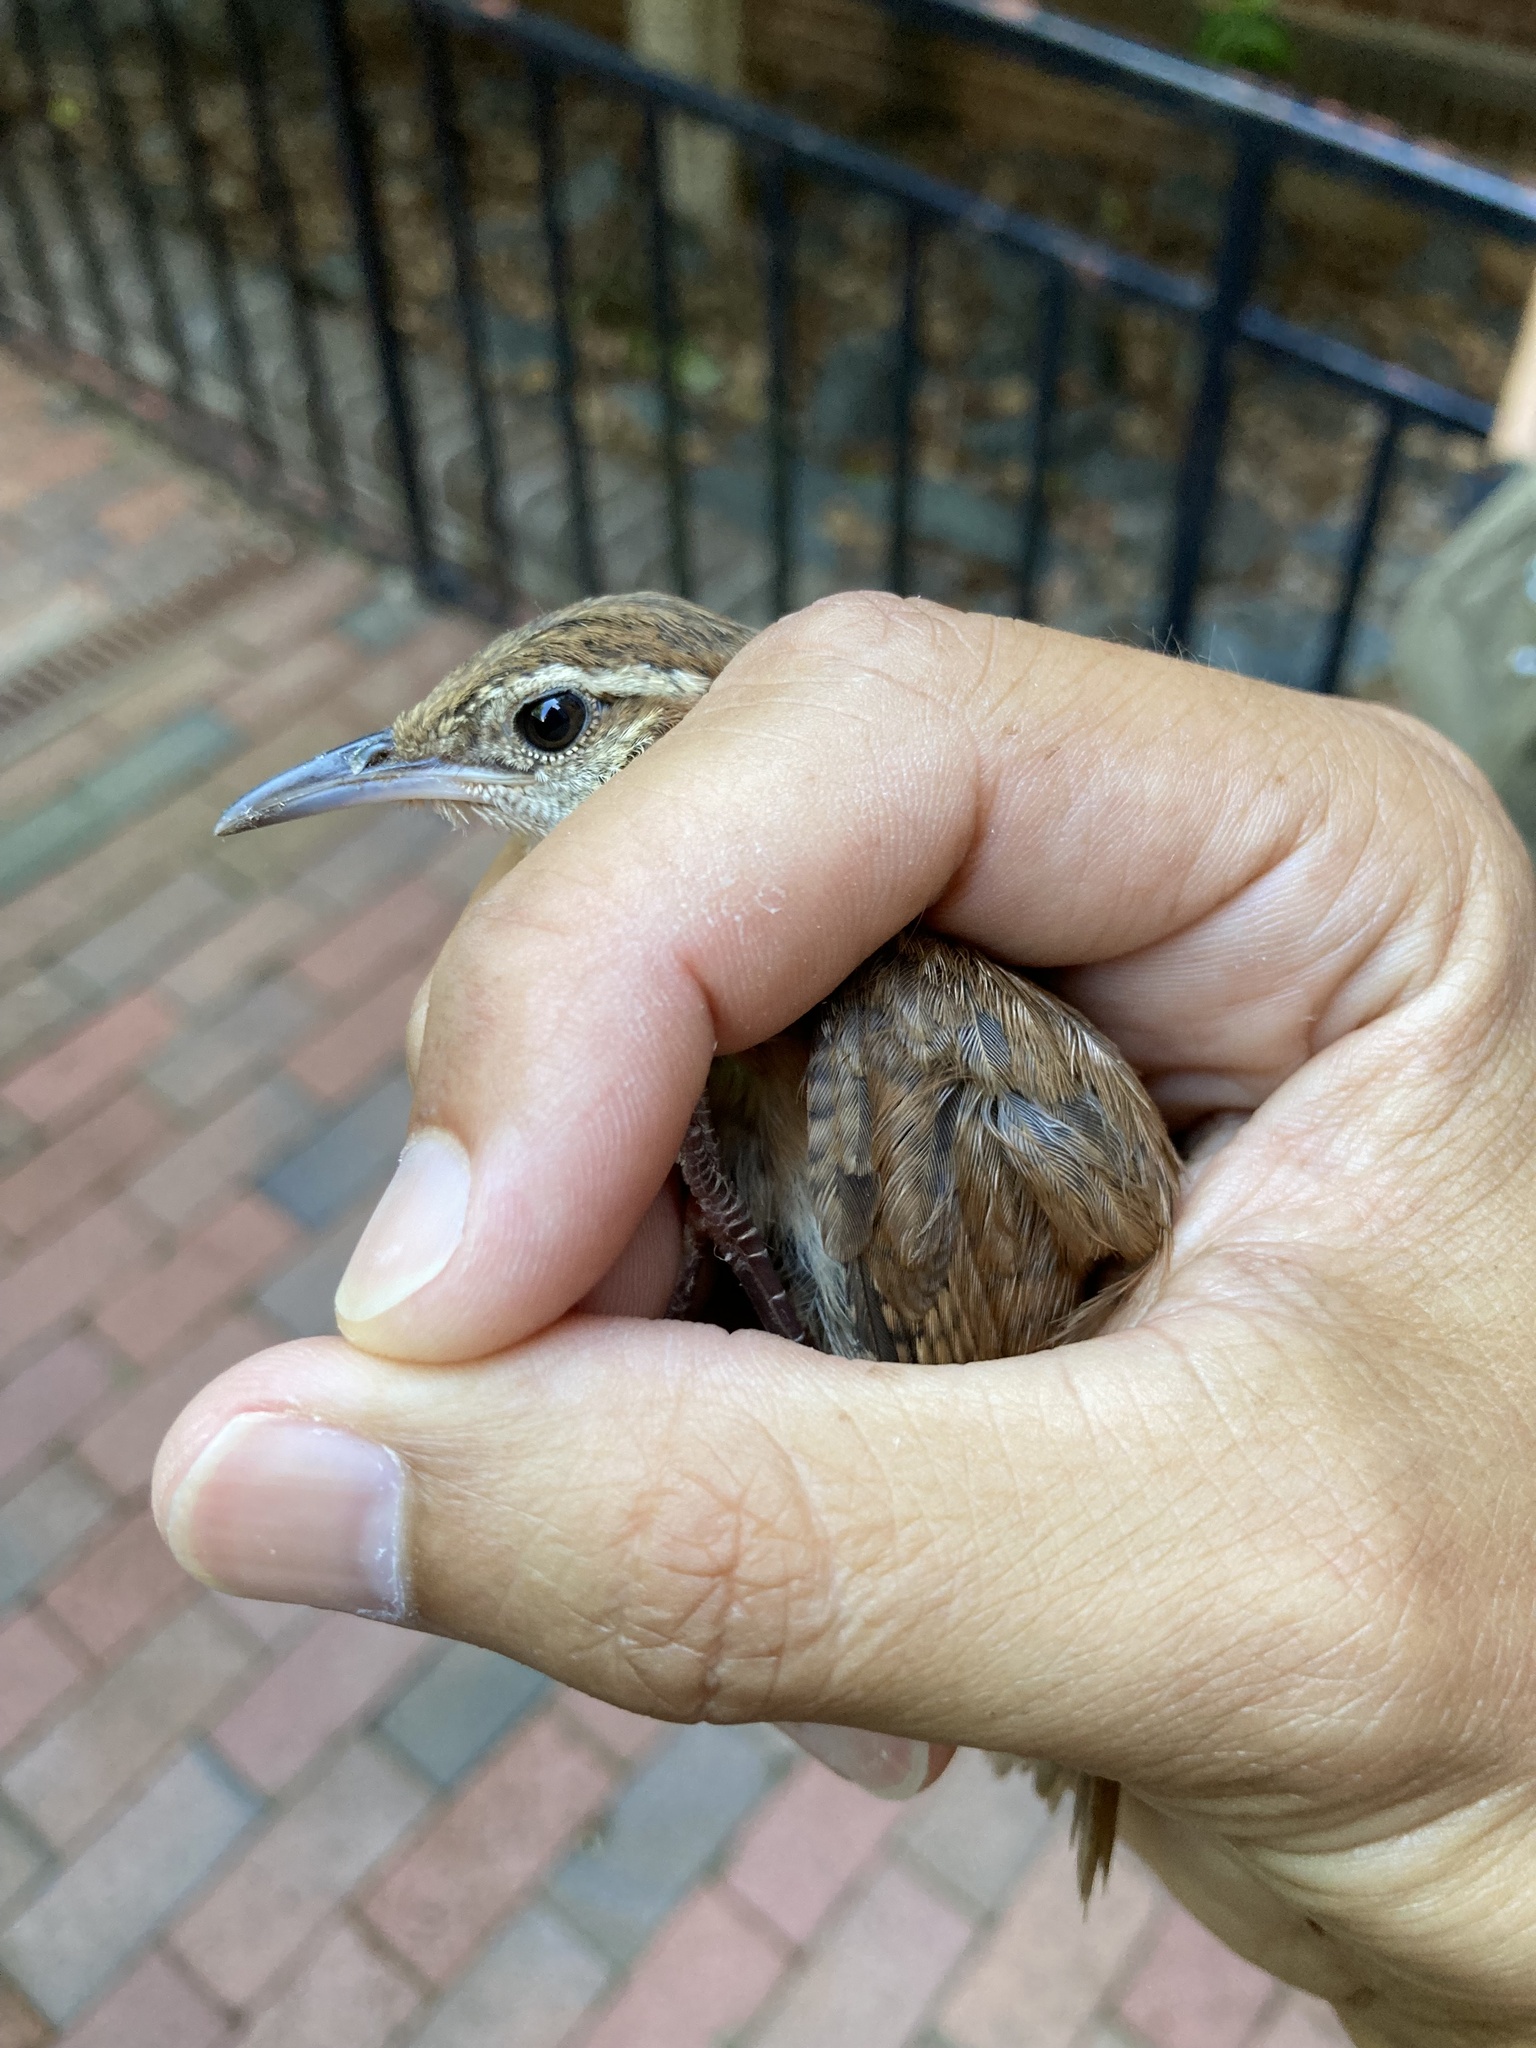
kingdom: Animalia
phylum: Chordata
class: Aves
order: Passeriformes
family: Troglodytidae
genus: Thryothorus
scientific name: Thryothorus ludovicianus
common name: Carolina wren
